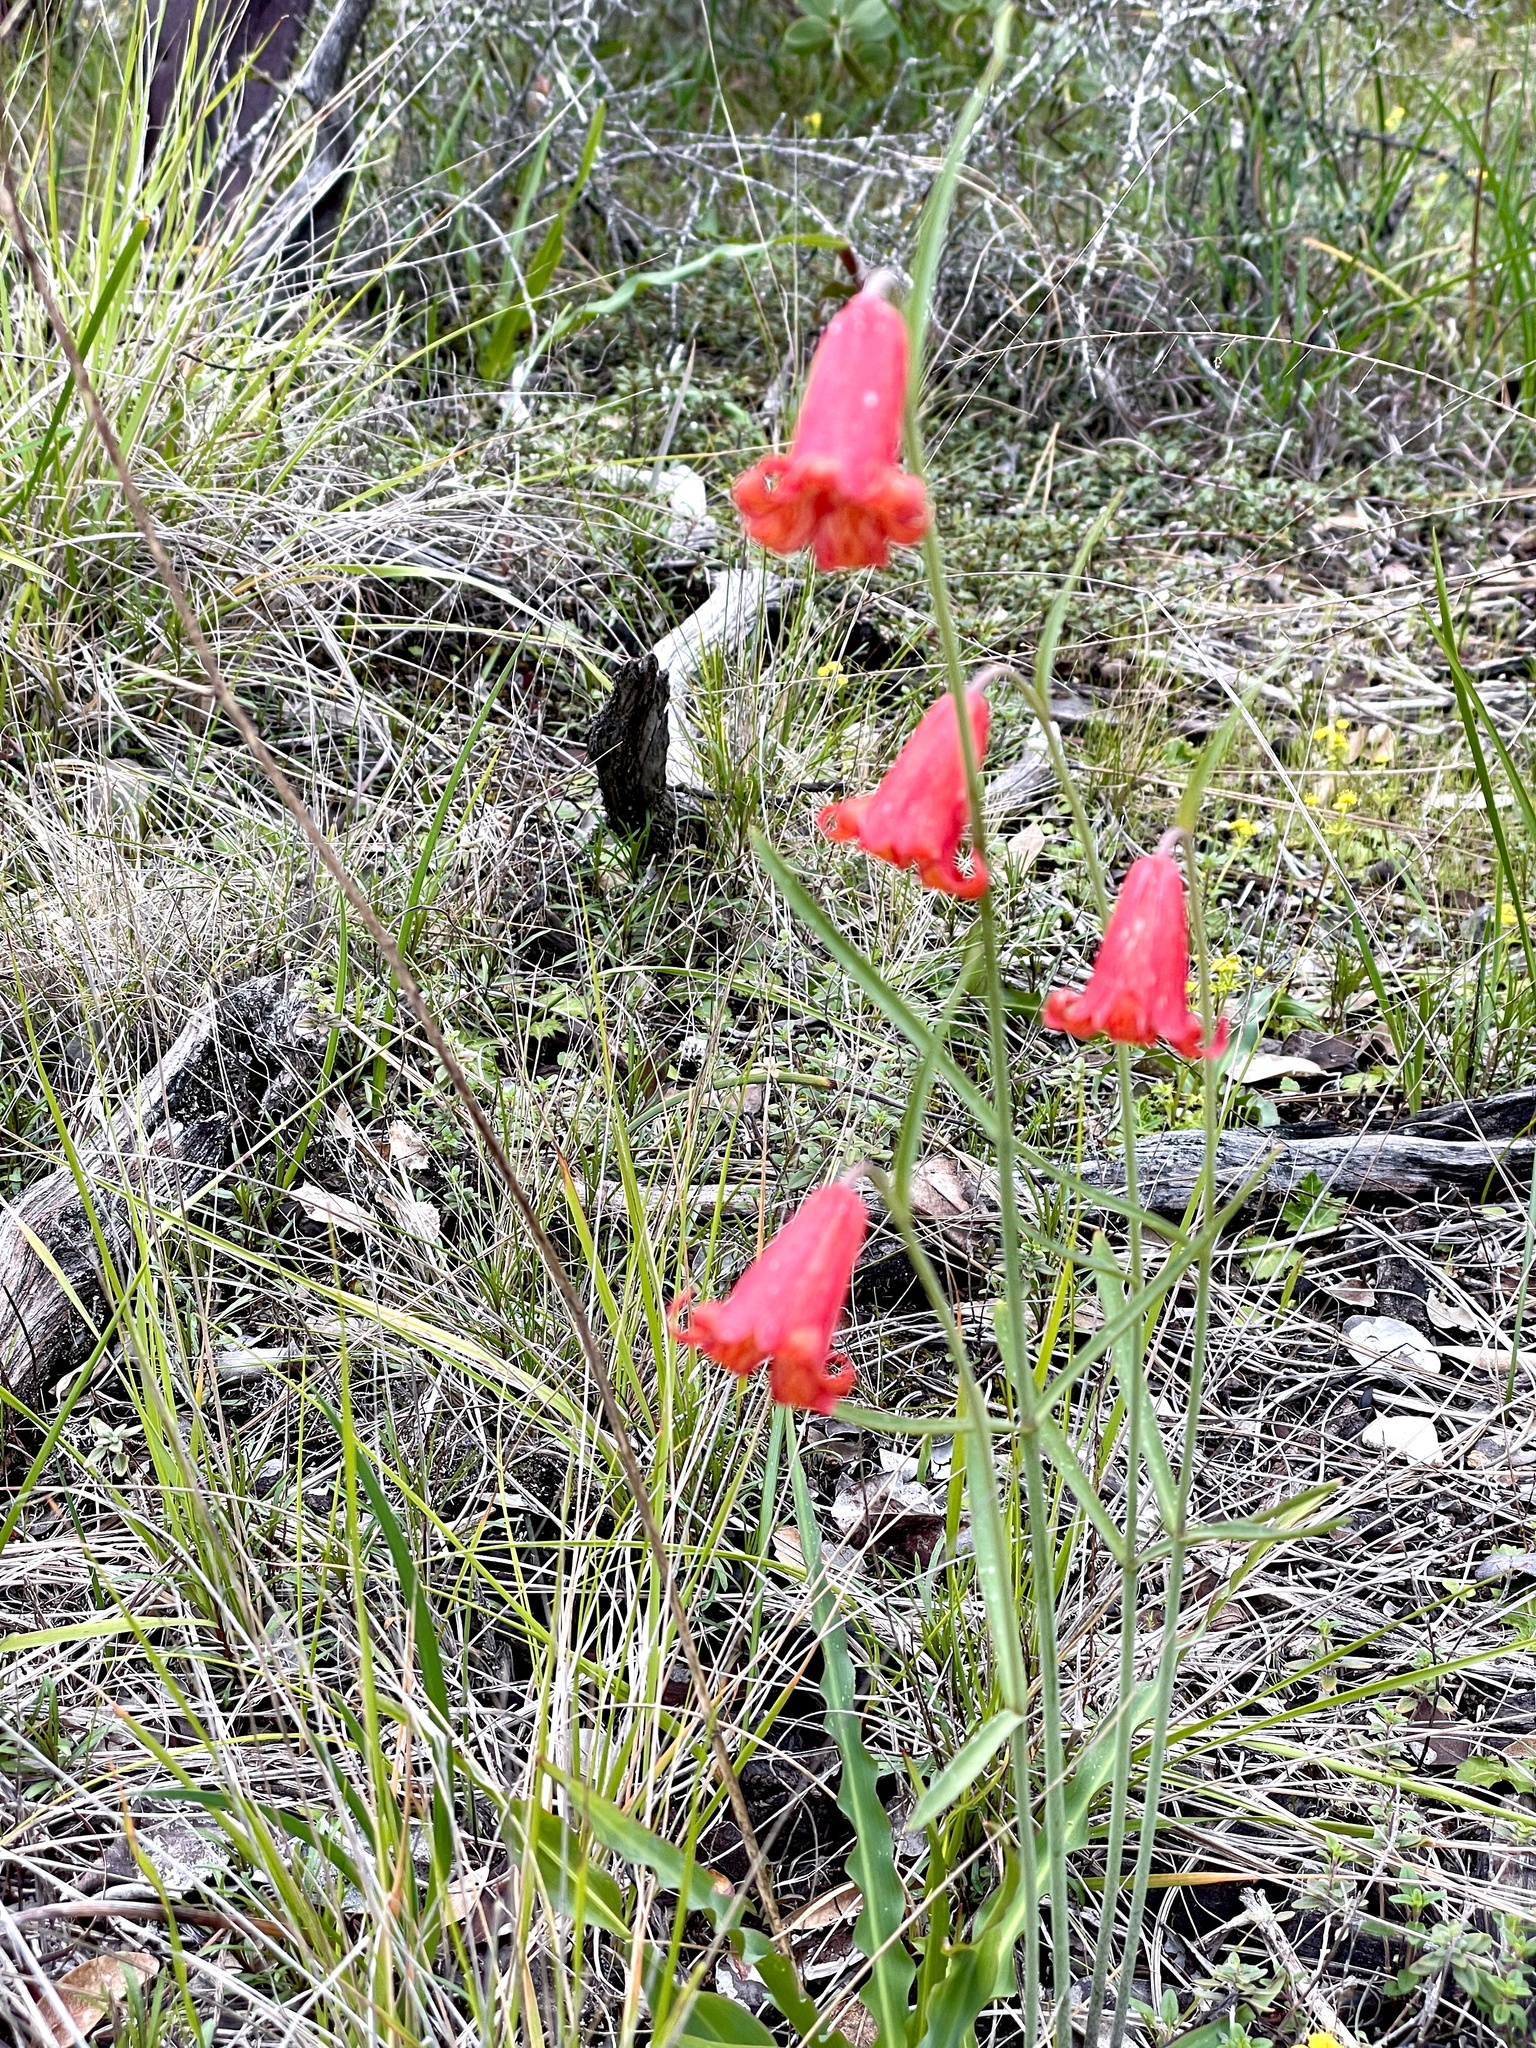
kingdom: Plantae
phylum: Tracheophyta
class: Liliopsida
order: Liliales
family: Liliaceae
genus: Fritillaria
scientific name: Fritillaria recurva
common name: Scarlet fritillary
